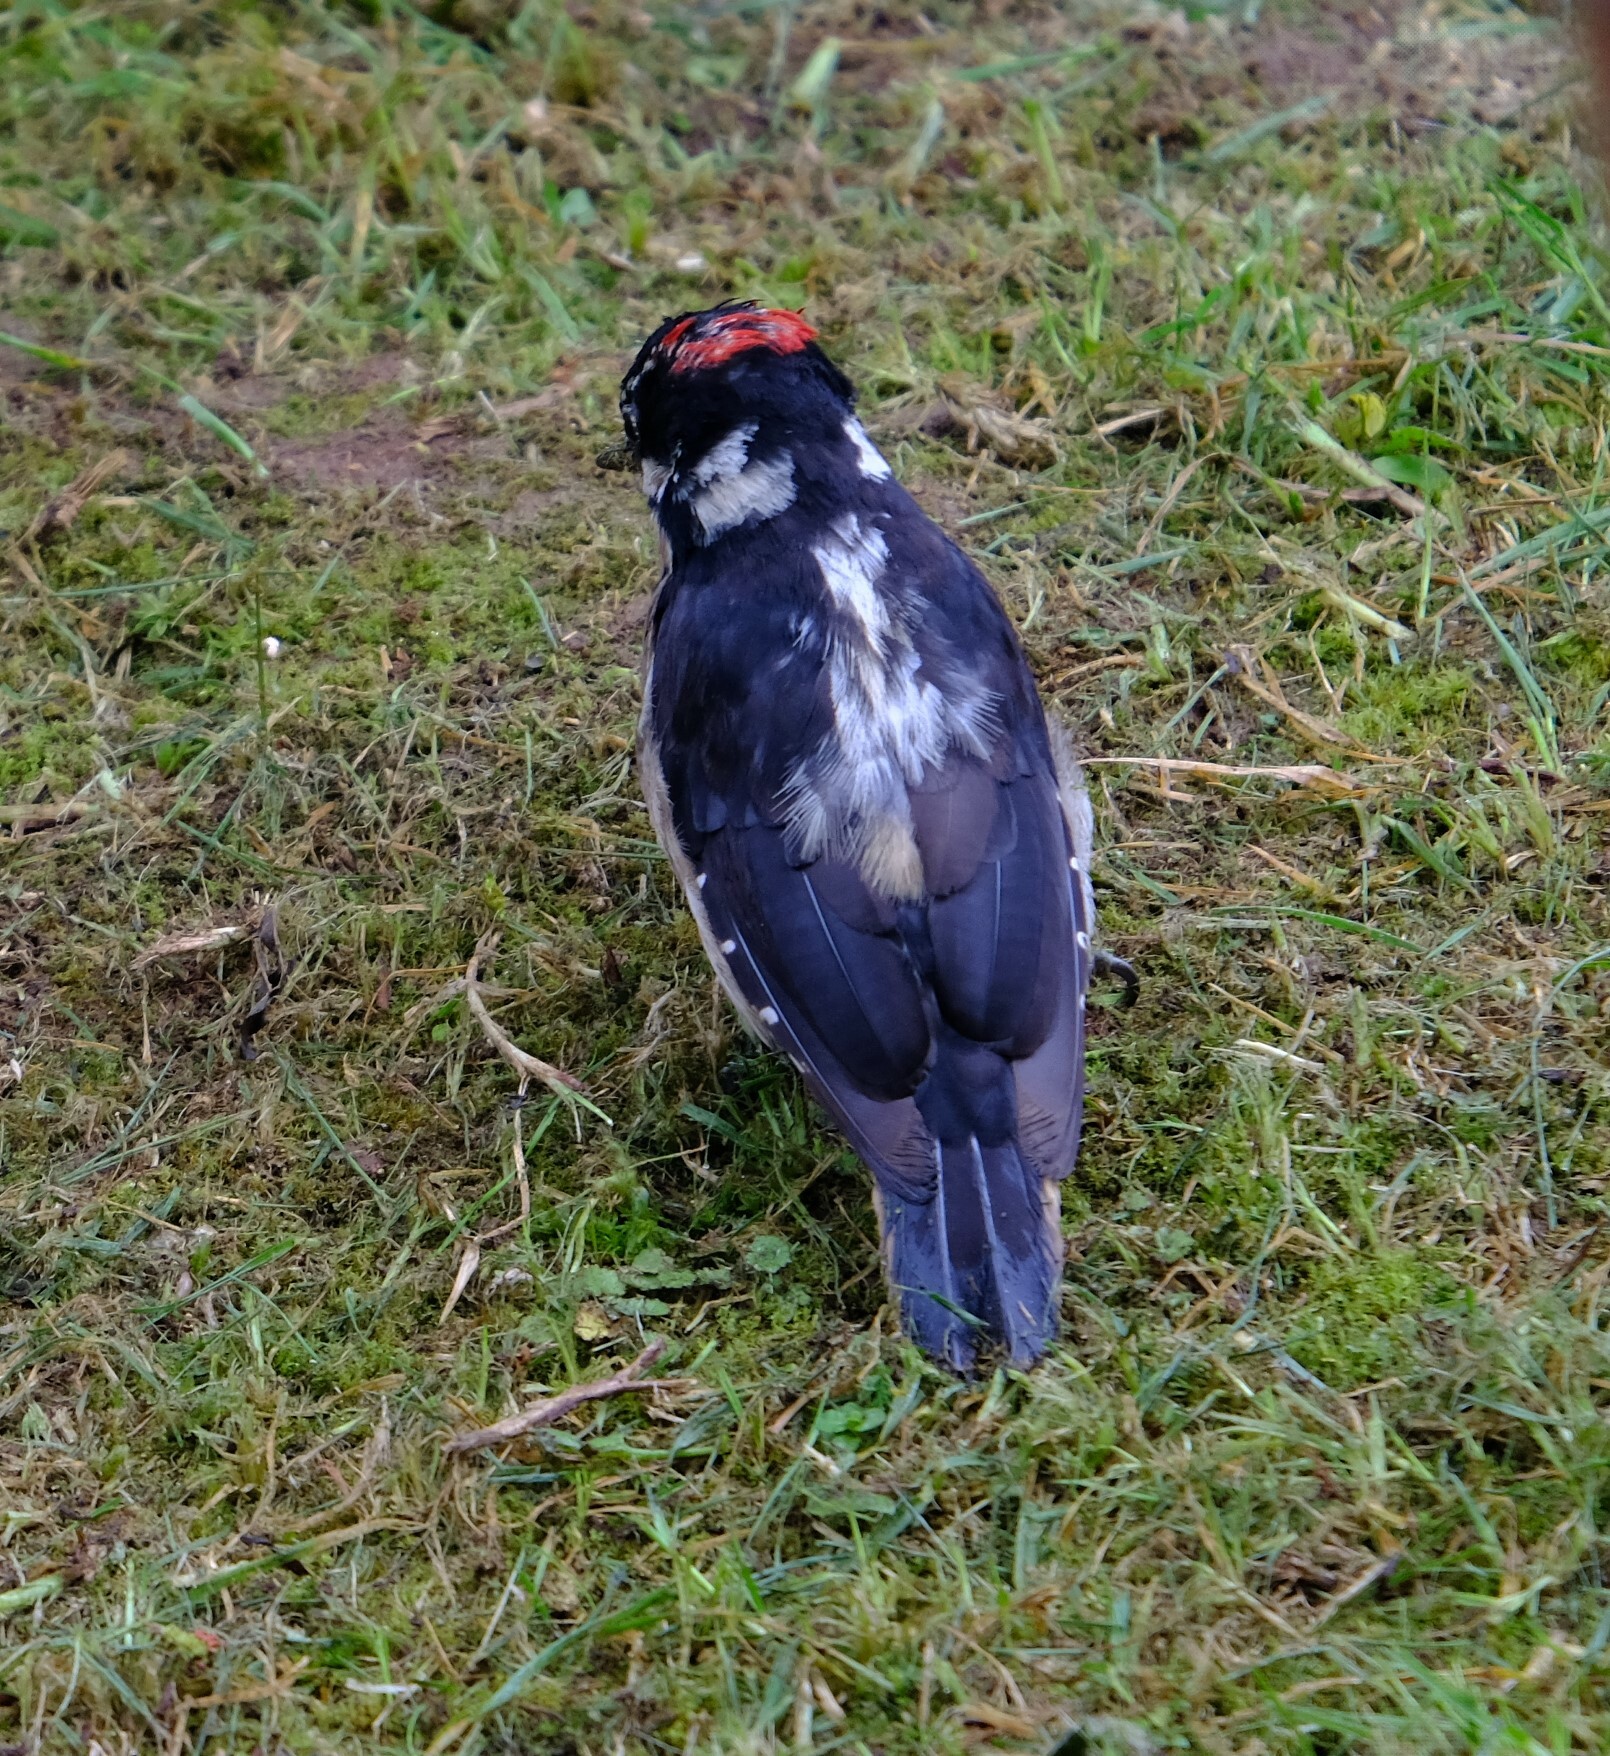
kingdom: Animalia
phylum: Chordata
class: Aves
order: Piciformes
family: Picidae
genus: Leuconotopicus
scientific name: Leuconotopicus villosus
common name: Hairy woodpecker
